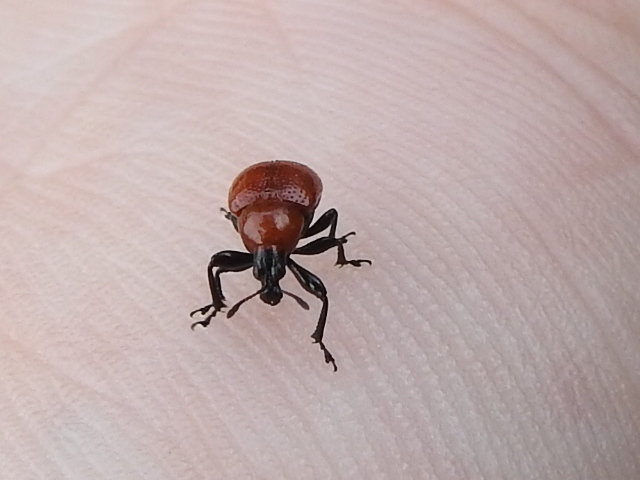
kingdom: Animalia
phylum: Arthropoda
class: Insecta
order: Coleoptera
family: Attelabidae
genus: Homoeolabus
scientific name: Homoeolabus analis
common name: Oak leaf rolling weevil
